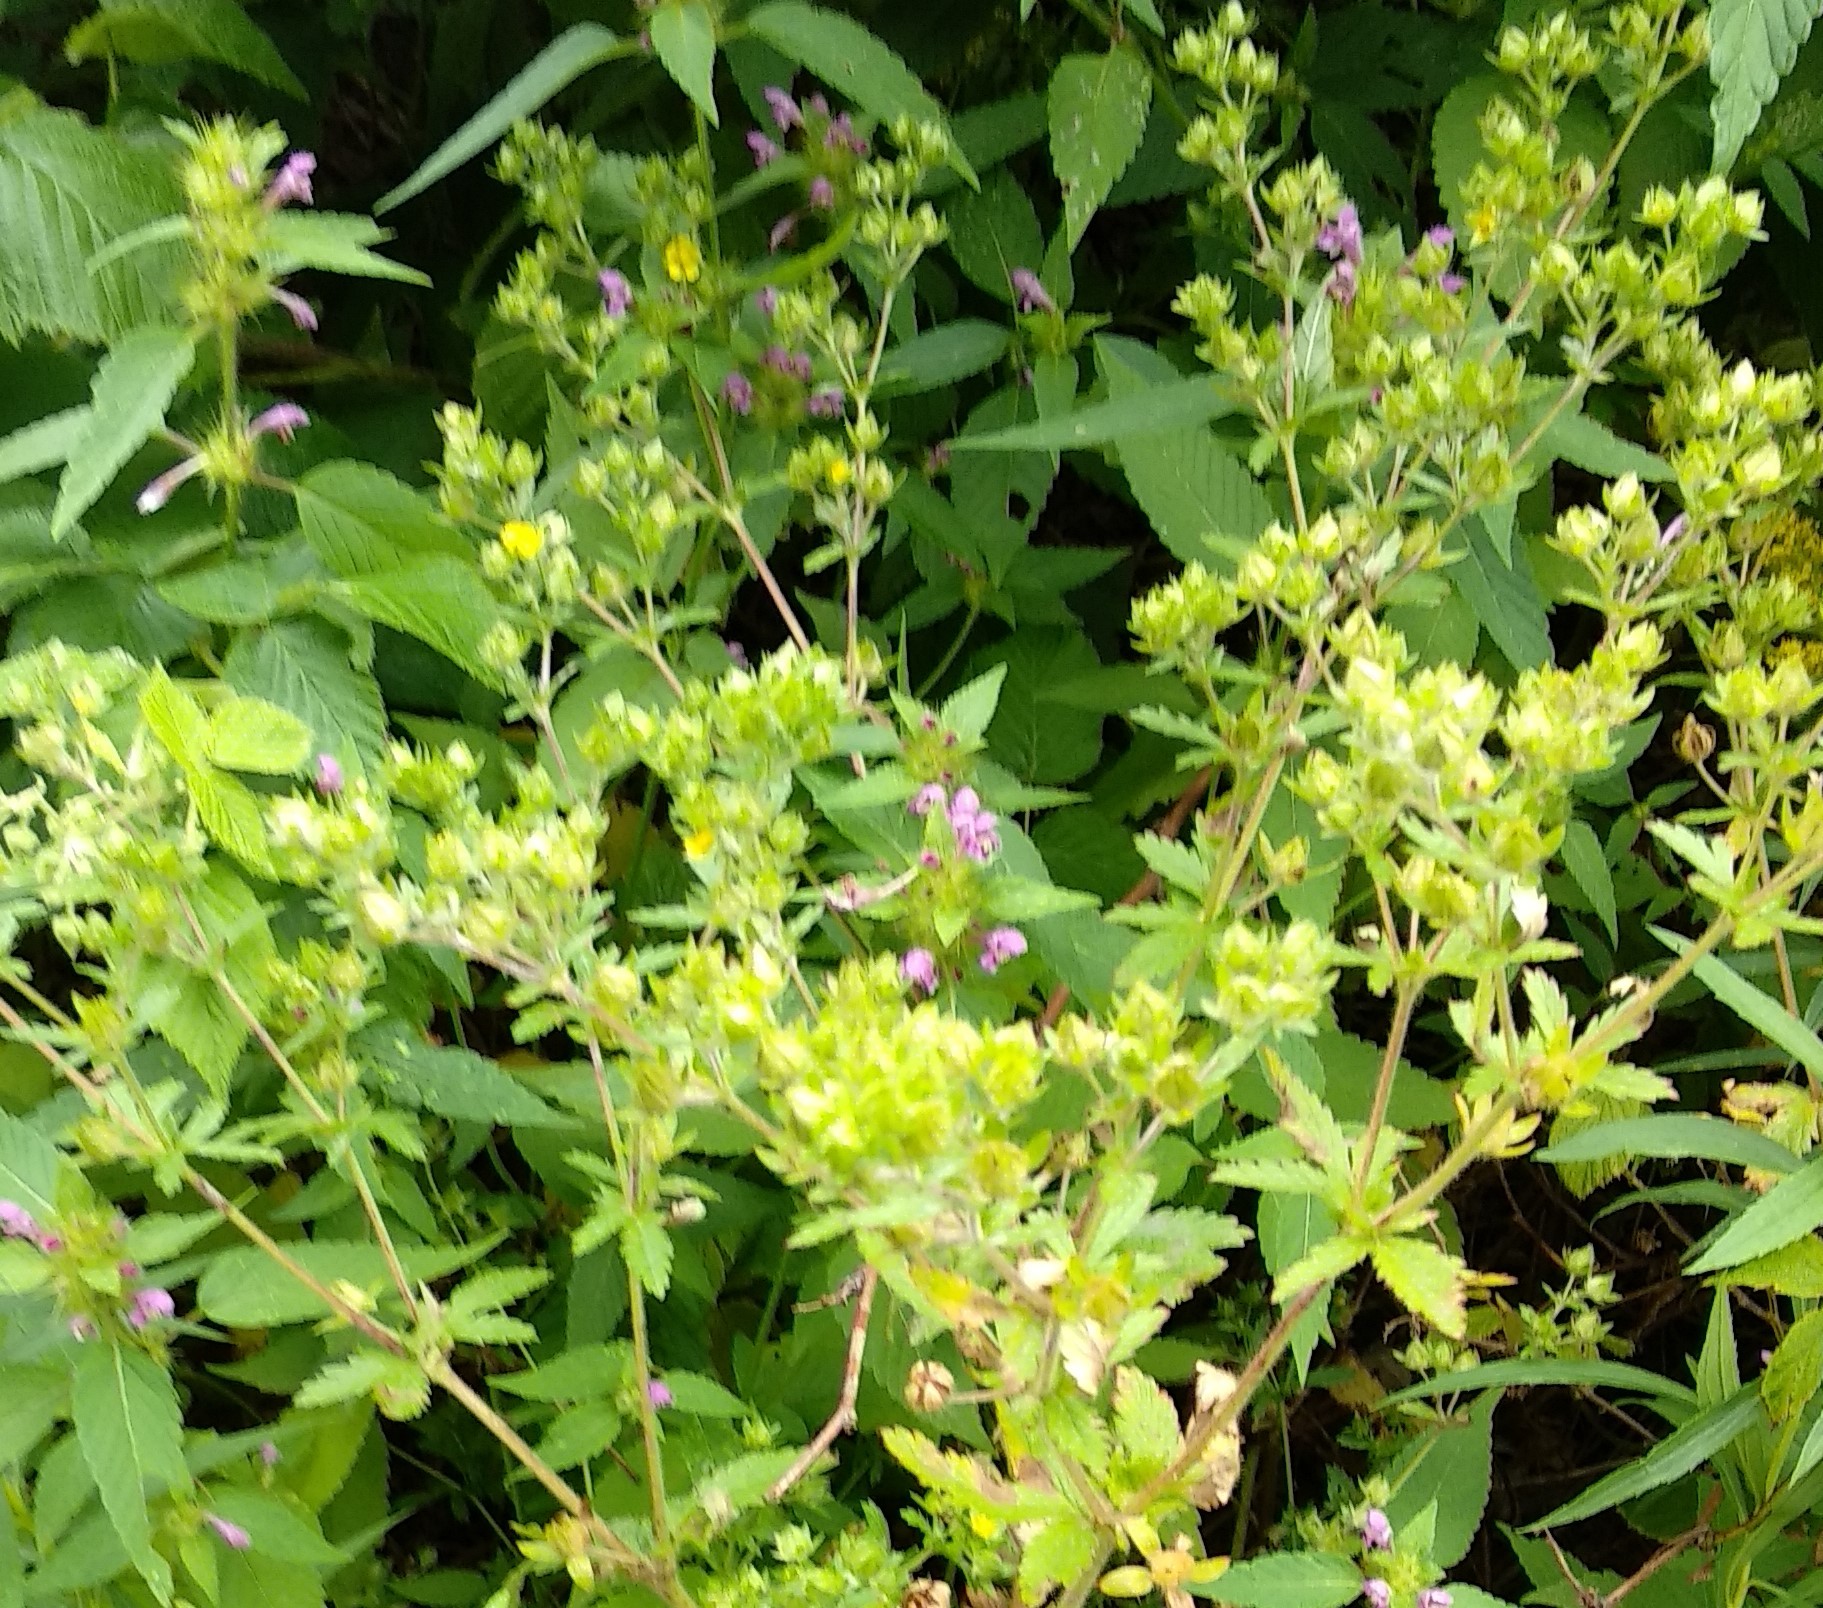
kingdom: Plantae
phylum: Tracheophyta
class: Magnoliopsida
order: Rosales
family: Rosaceae
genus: Potentilla
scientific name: Potentilla norvegica
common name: Ternate-leaved cinquefoil
